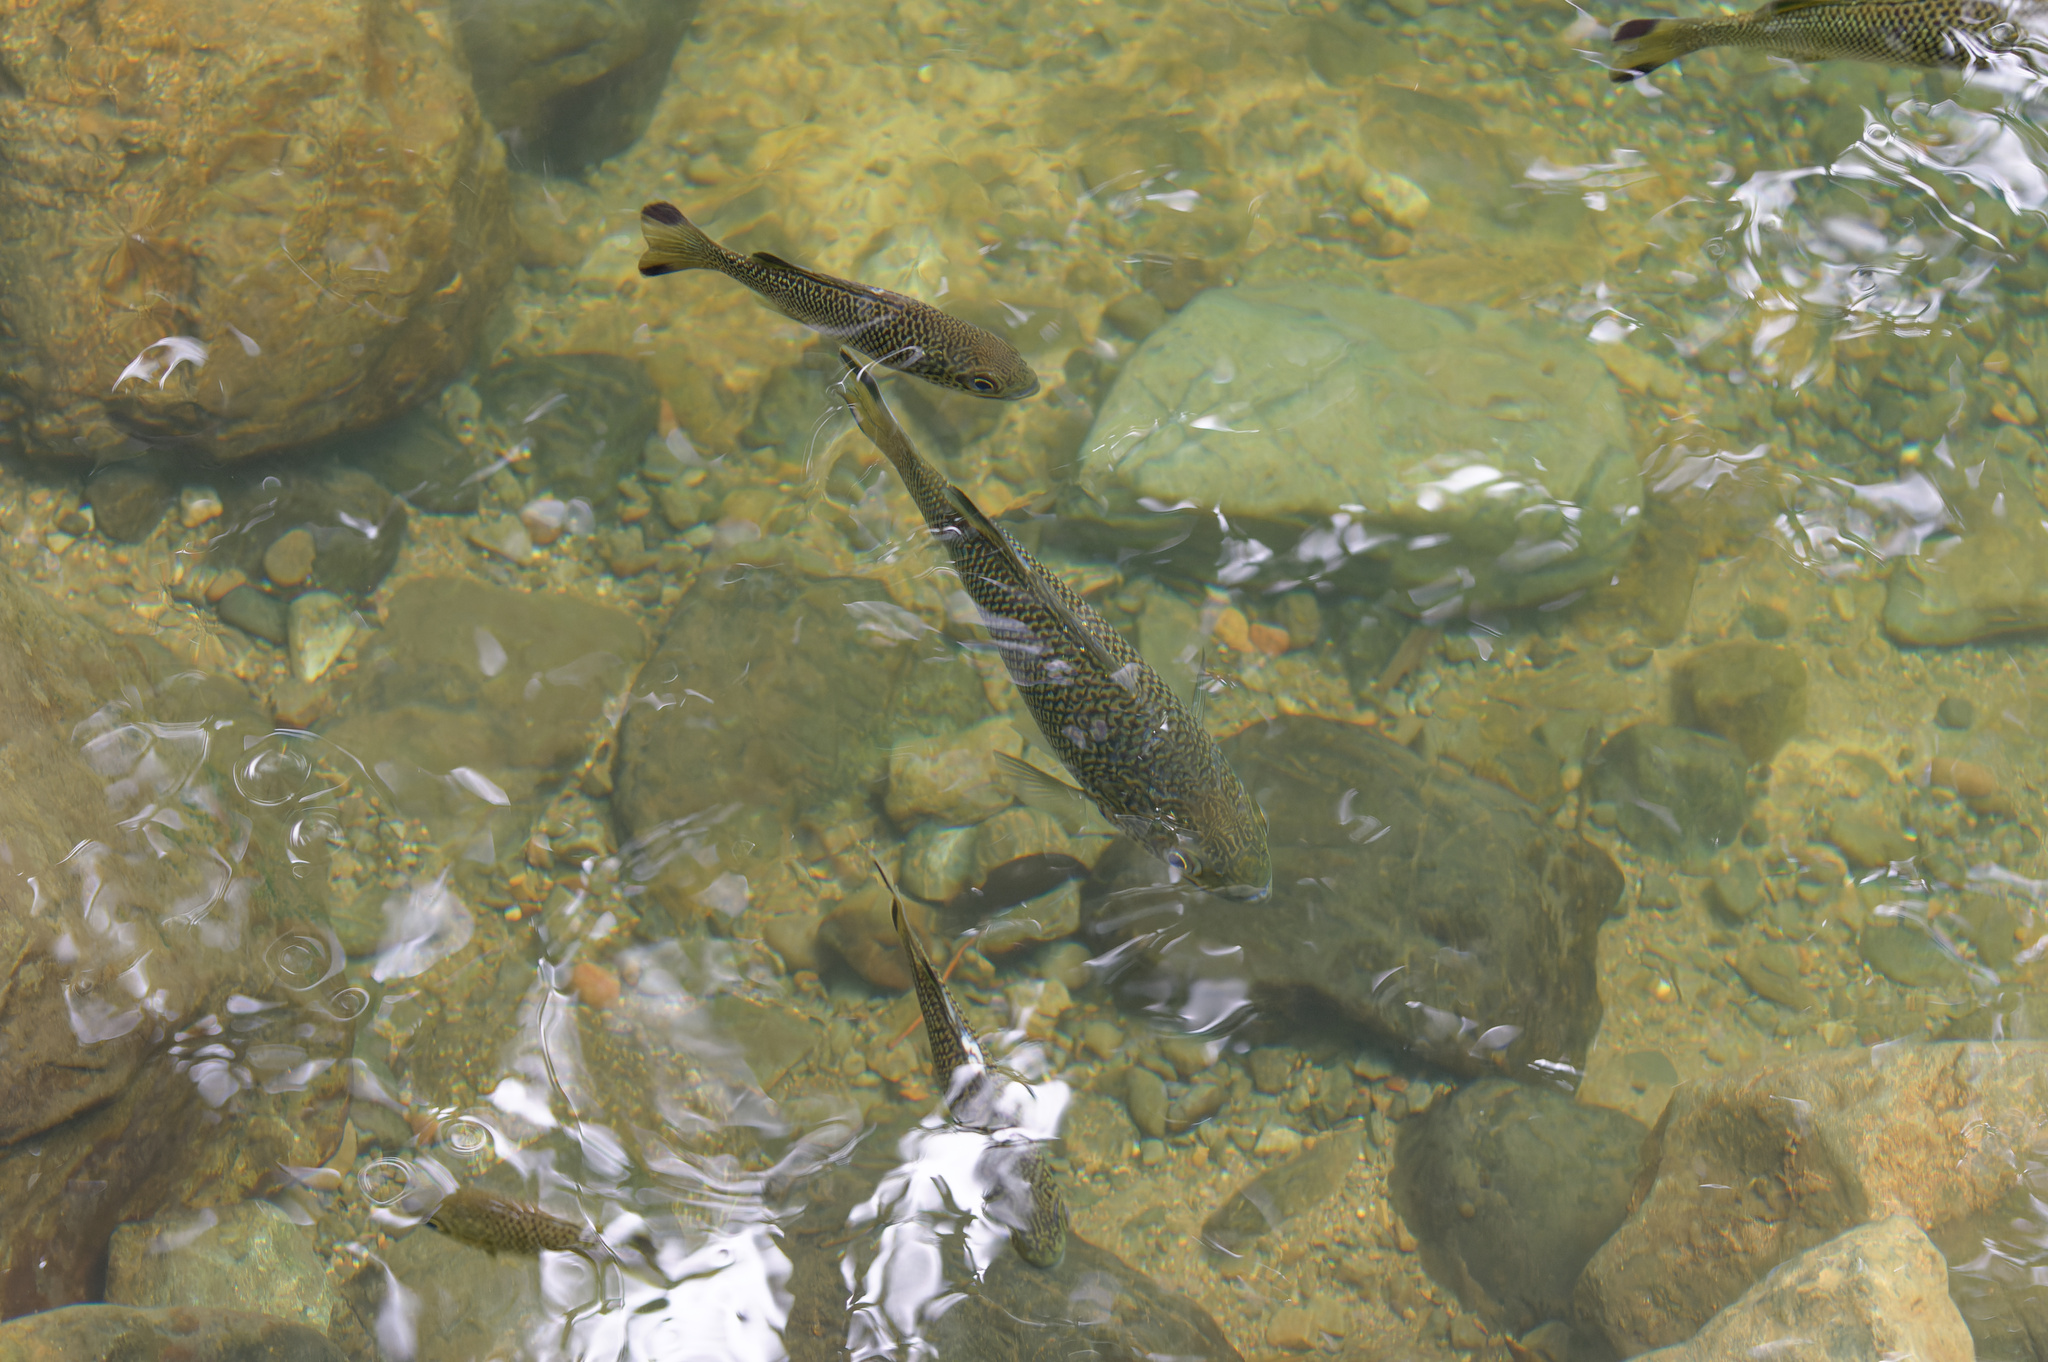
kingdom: Animalia
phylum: Chordata
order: Perciformes
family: Kuhliidae
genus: Kuhlia
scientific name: Kuhlia rupestris
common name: Rock flagtail
